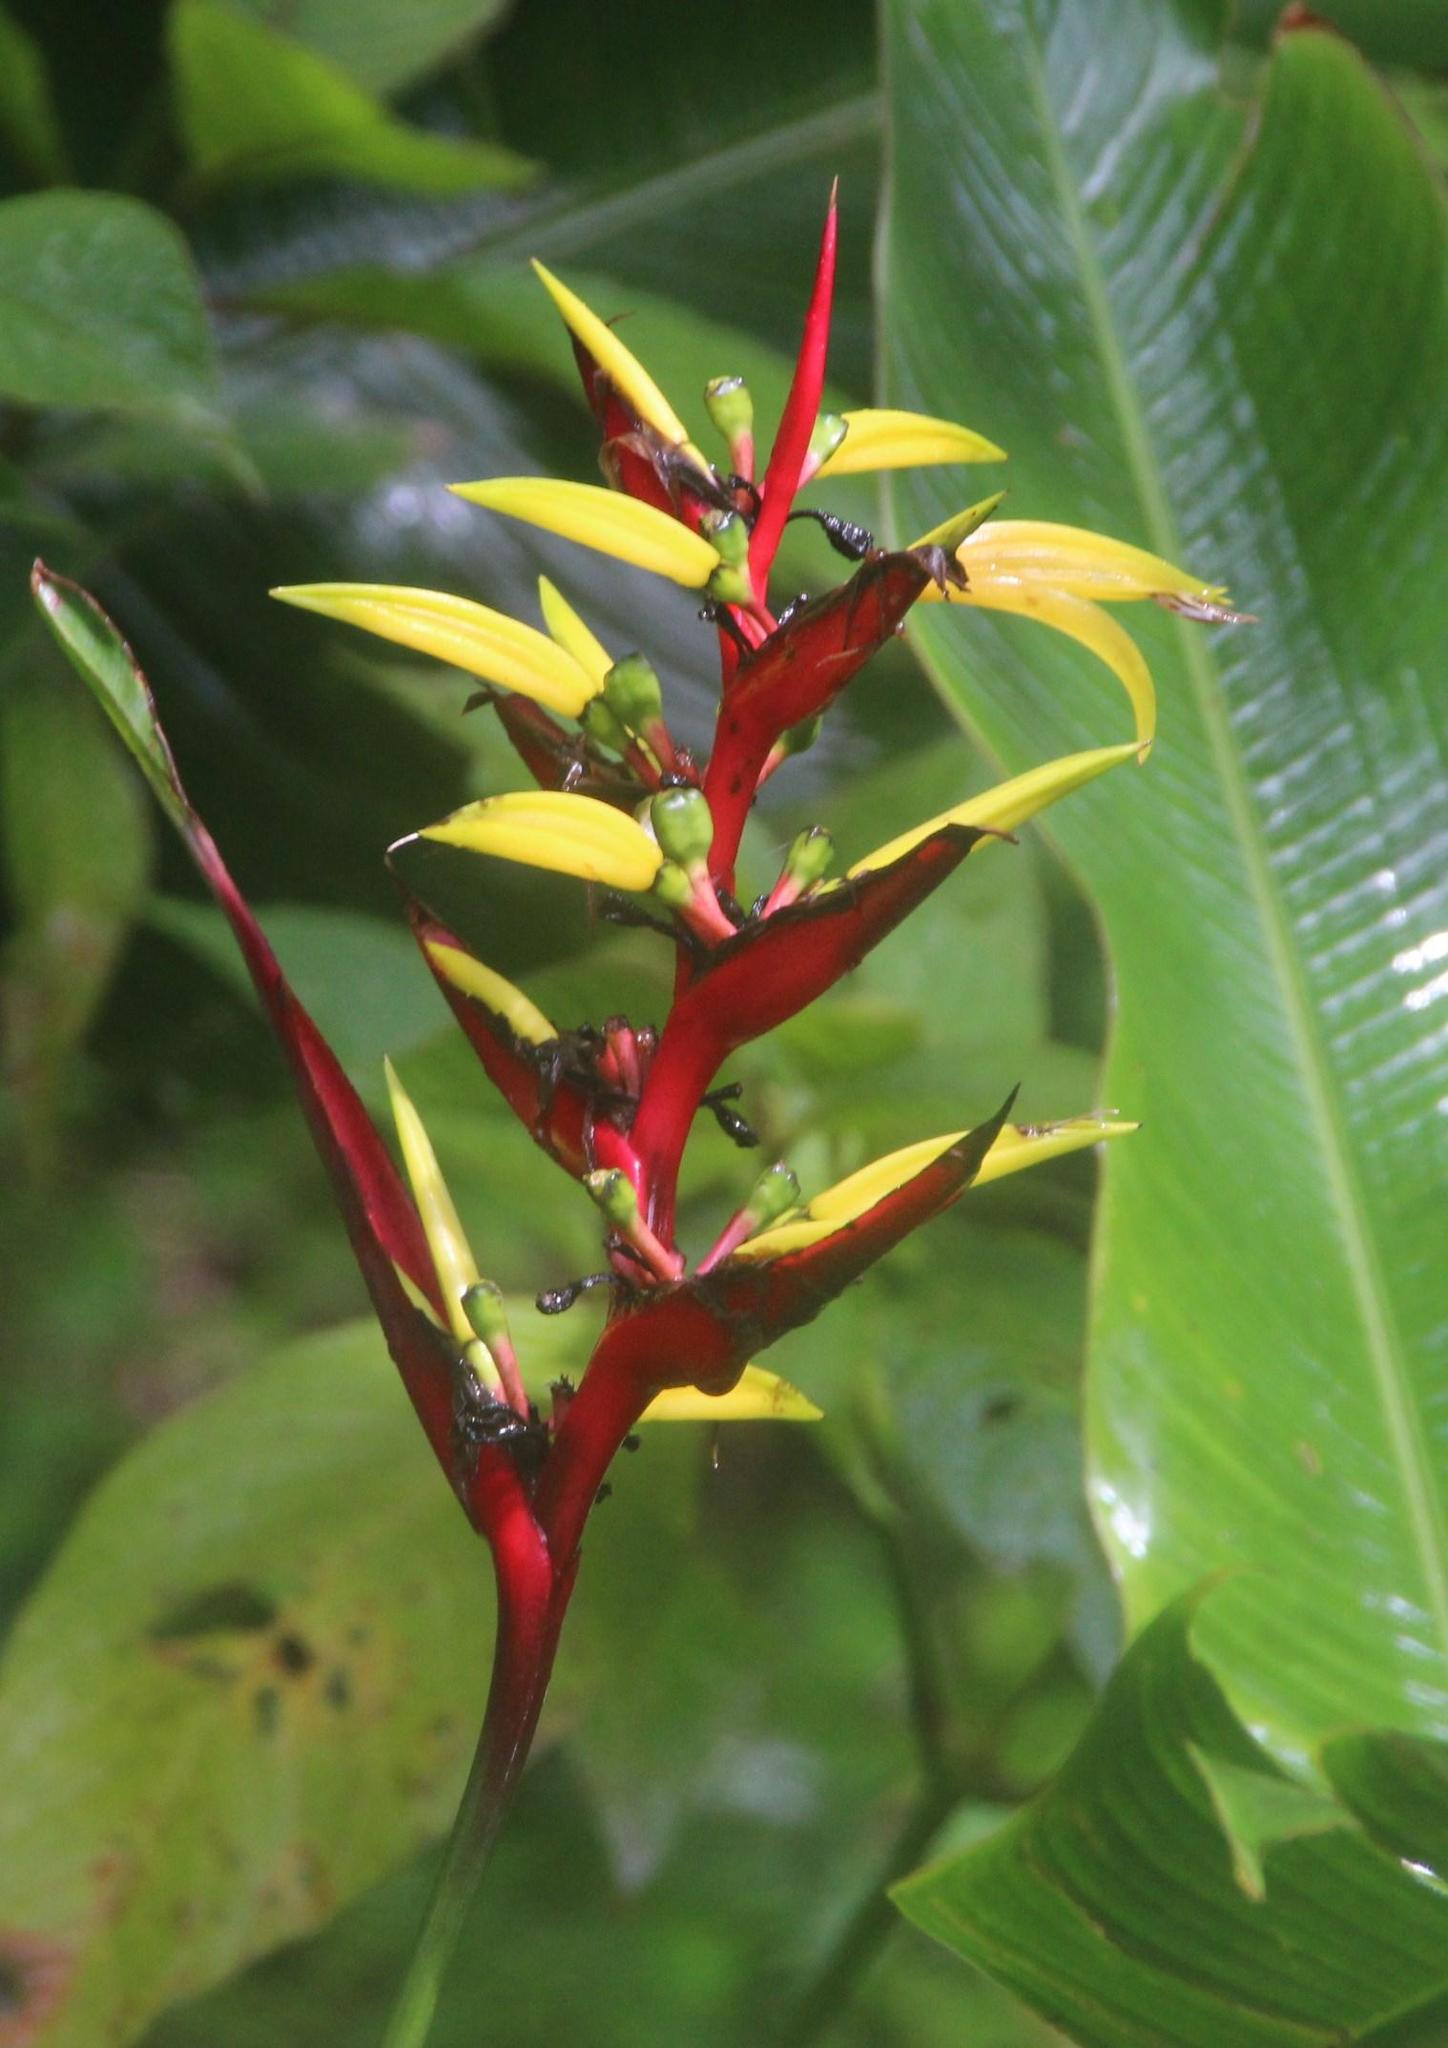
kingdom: Plantae
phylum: Tracheophyta
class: Liliopsida
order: Zingiberales
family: Heliconiaceae
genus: Heliconia
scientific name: Heliconia subulata
